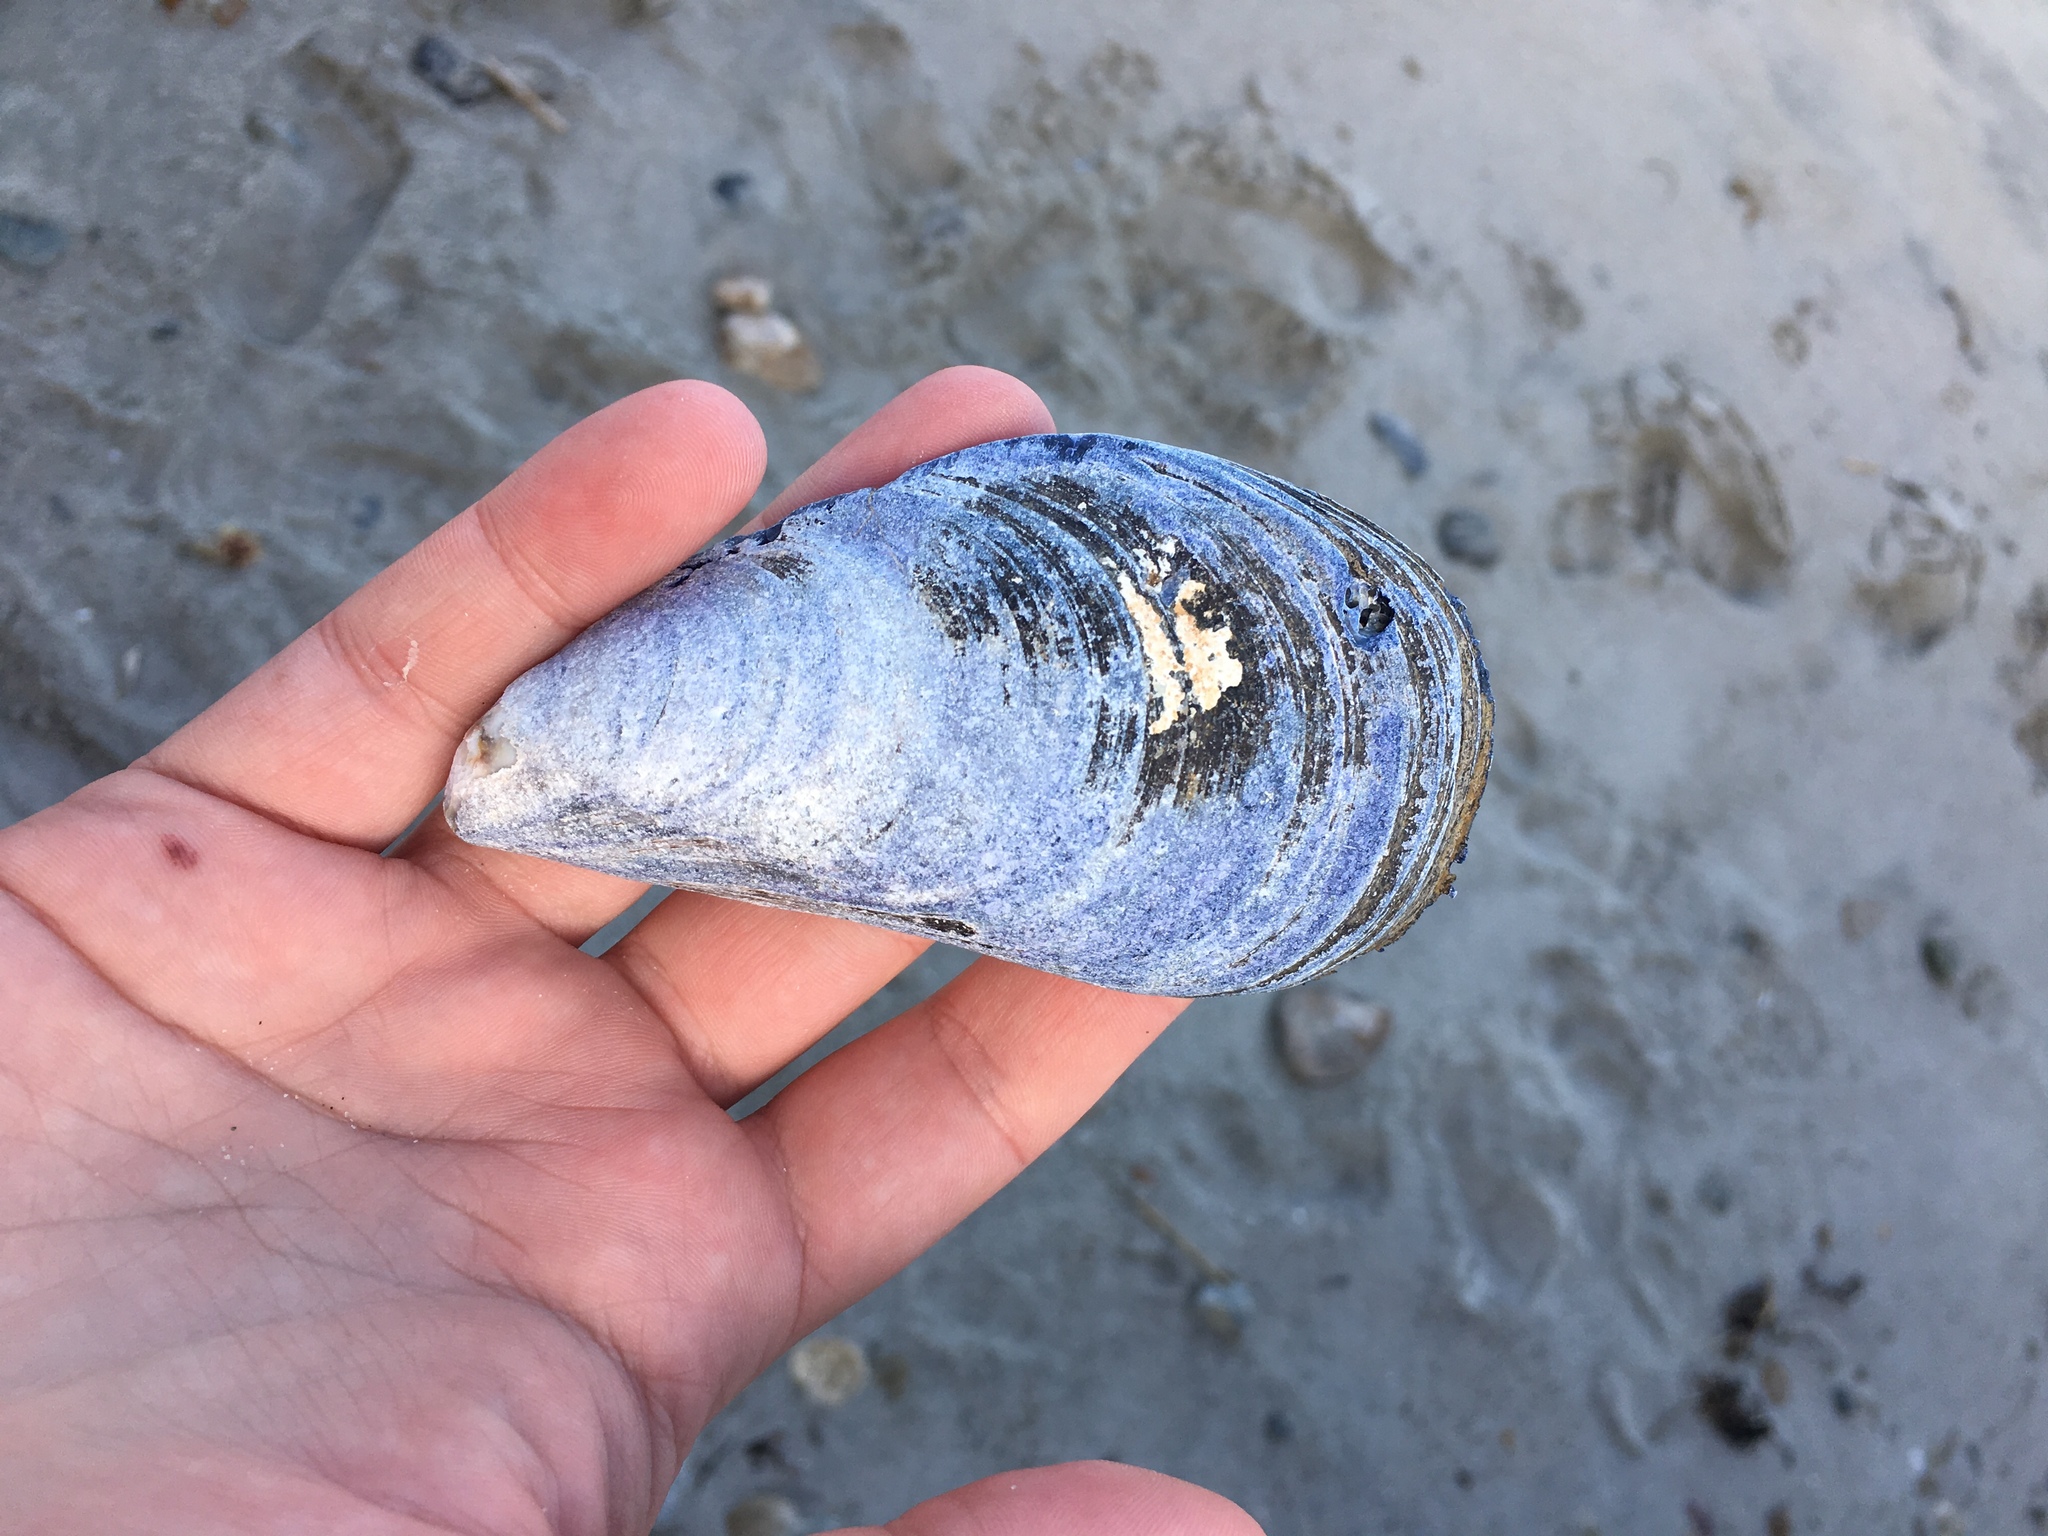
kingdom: Animalia
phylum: Mollusca
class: Bivalvia
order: Mytilida
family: Mytilidae
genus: Mytilus
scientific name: Mytilus edulis
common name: Blue mussel
